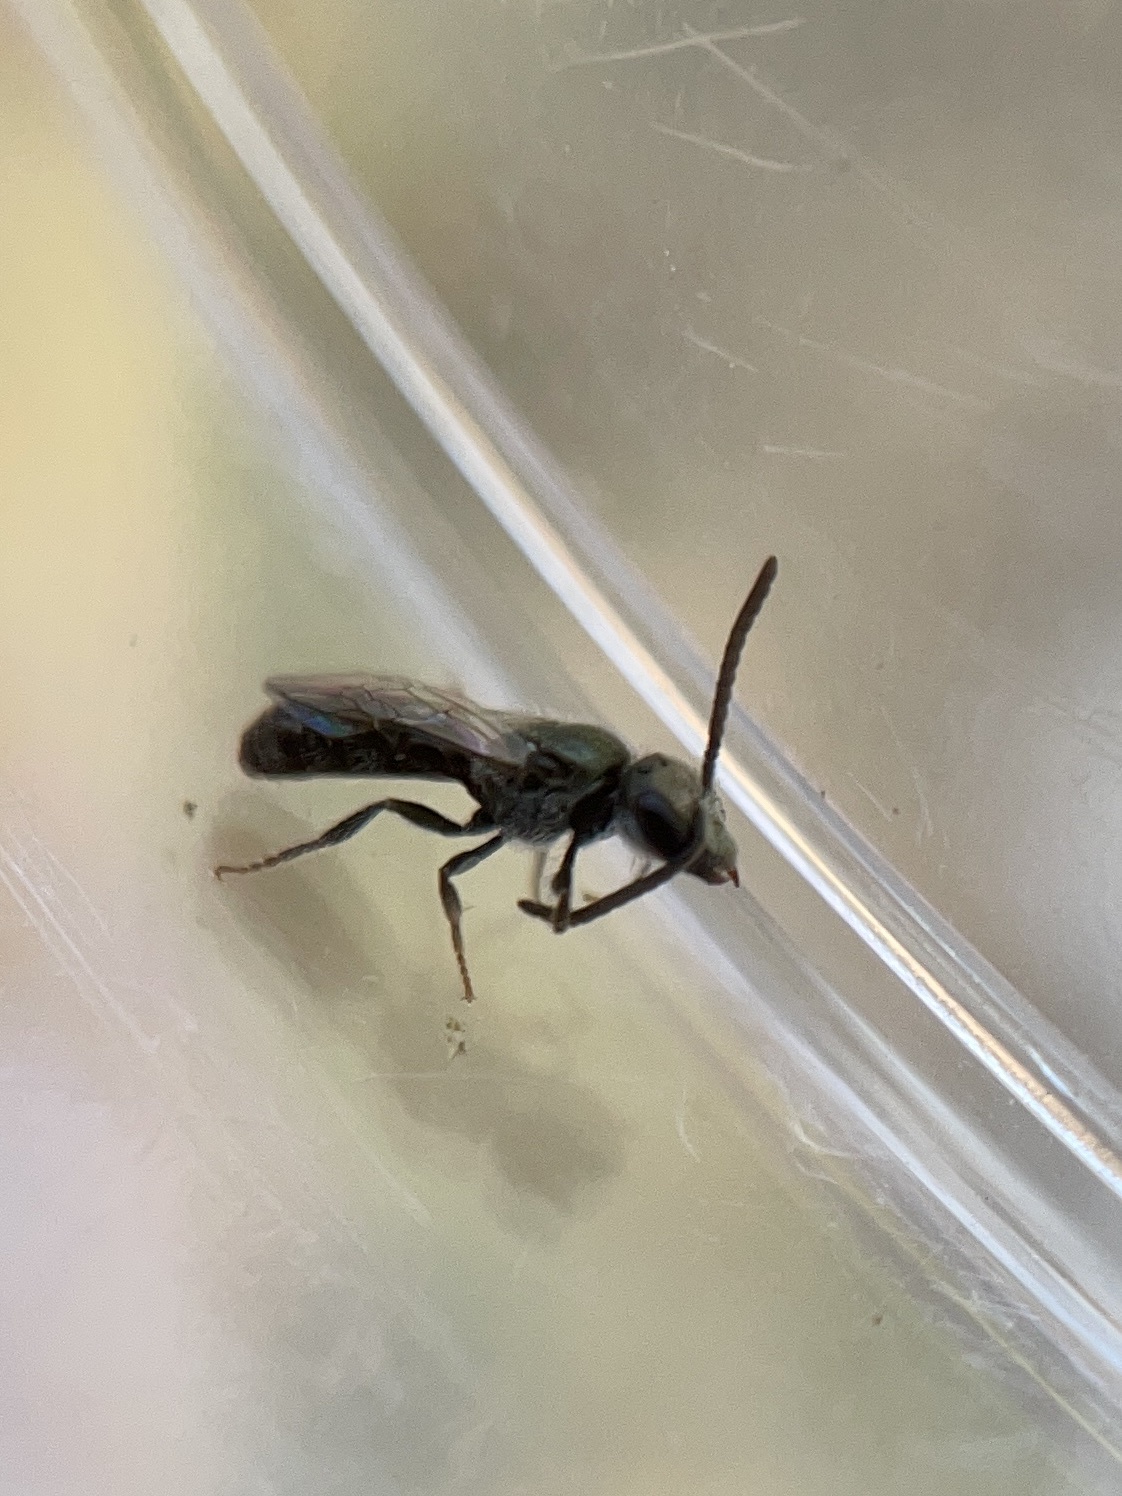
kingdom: Animalia
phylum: Arthropoda
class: Insecta
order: Hymenoptera
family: Halictidae
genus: Dialictus
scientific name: Dialictus
